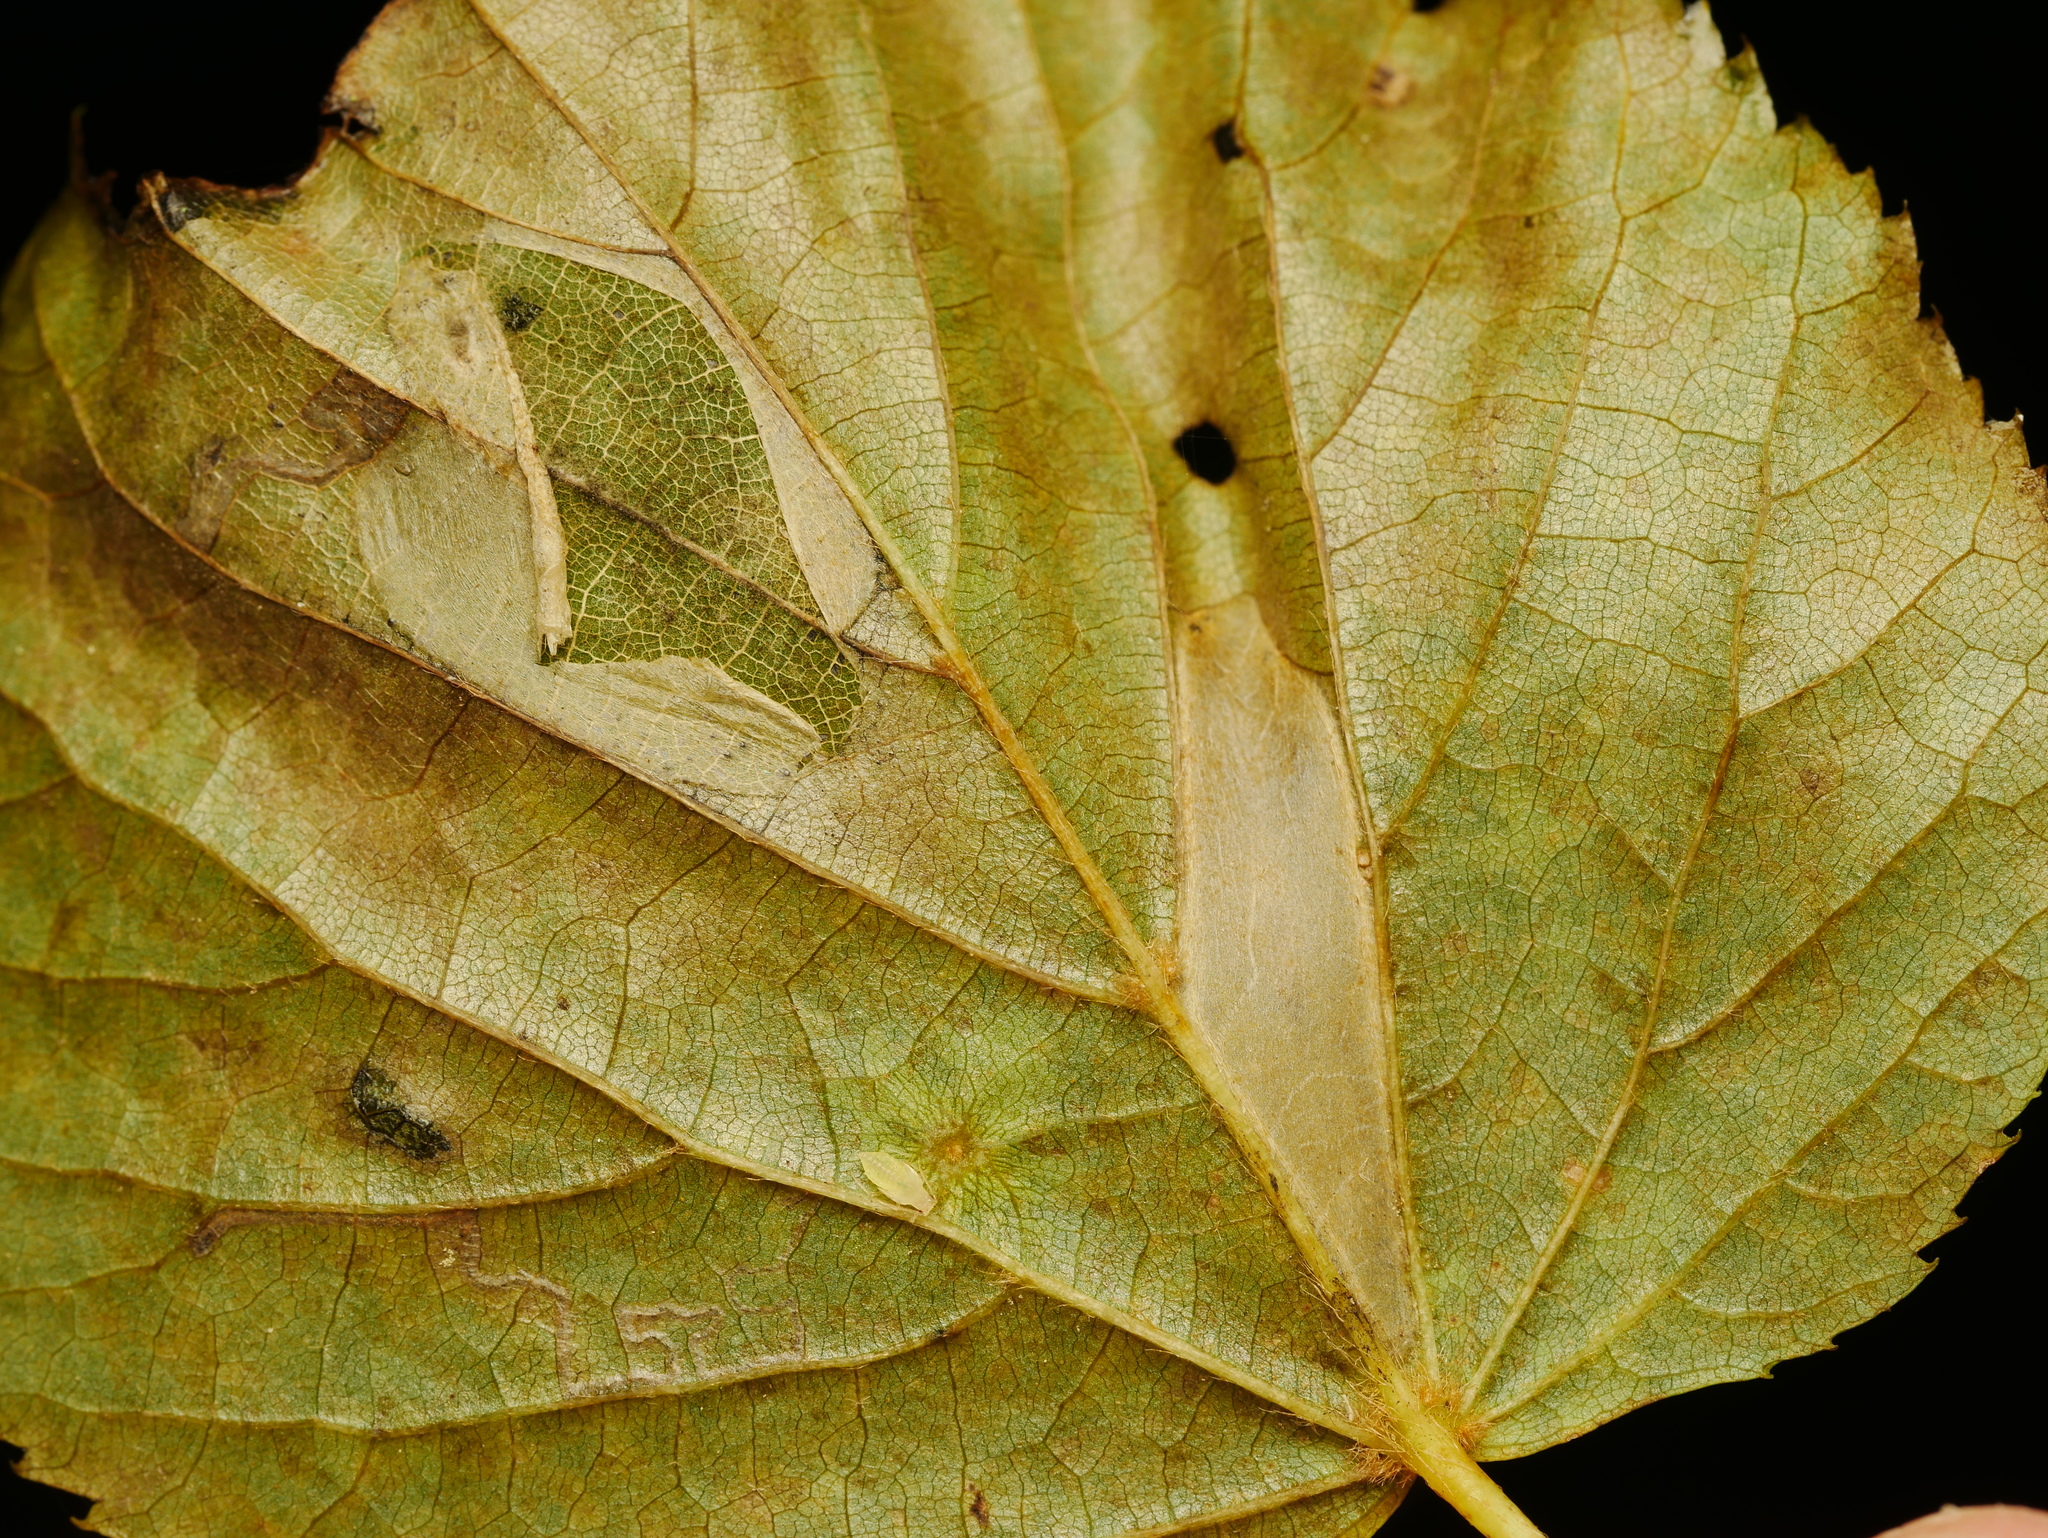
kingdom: Animalia
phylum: Arthropoda
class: Insecta
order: Lepidoptera
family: Gracillariidae
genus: Phyllonorycter
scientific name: Phyllonorycter issikii
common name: Linden midget
